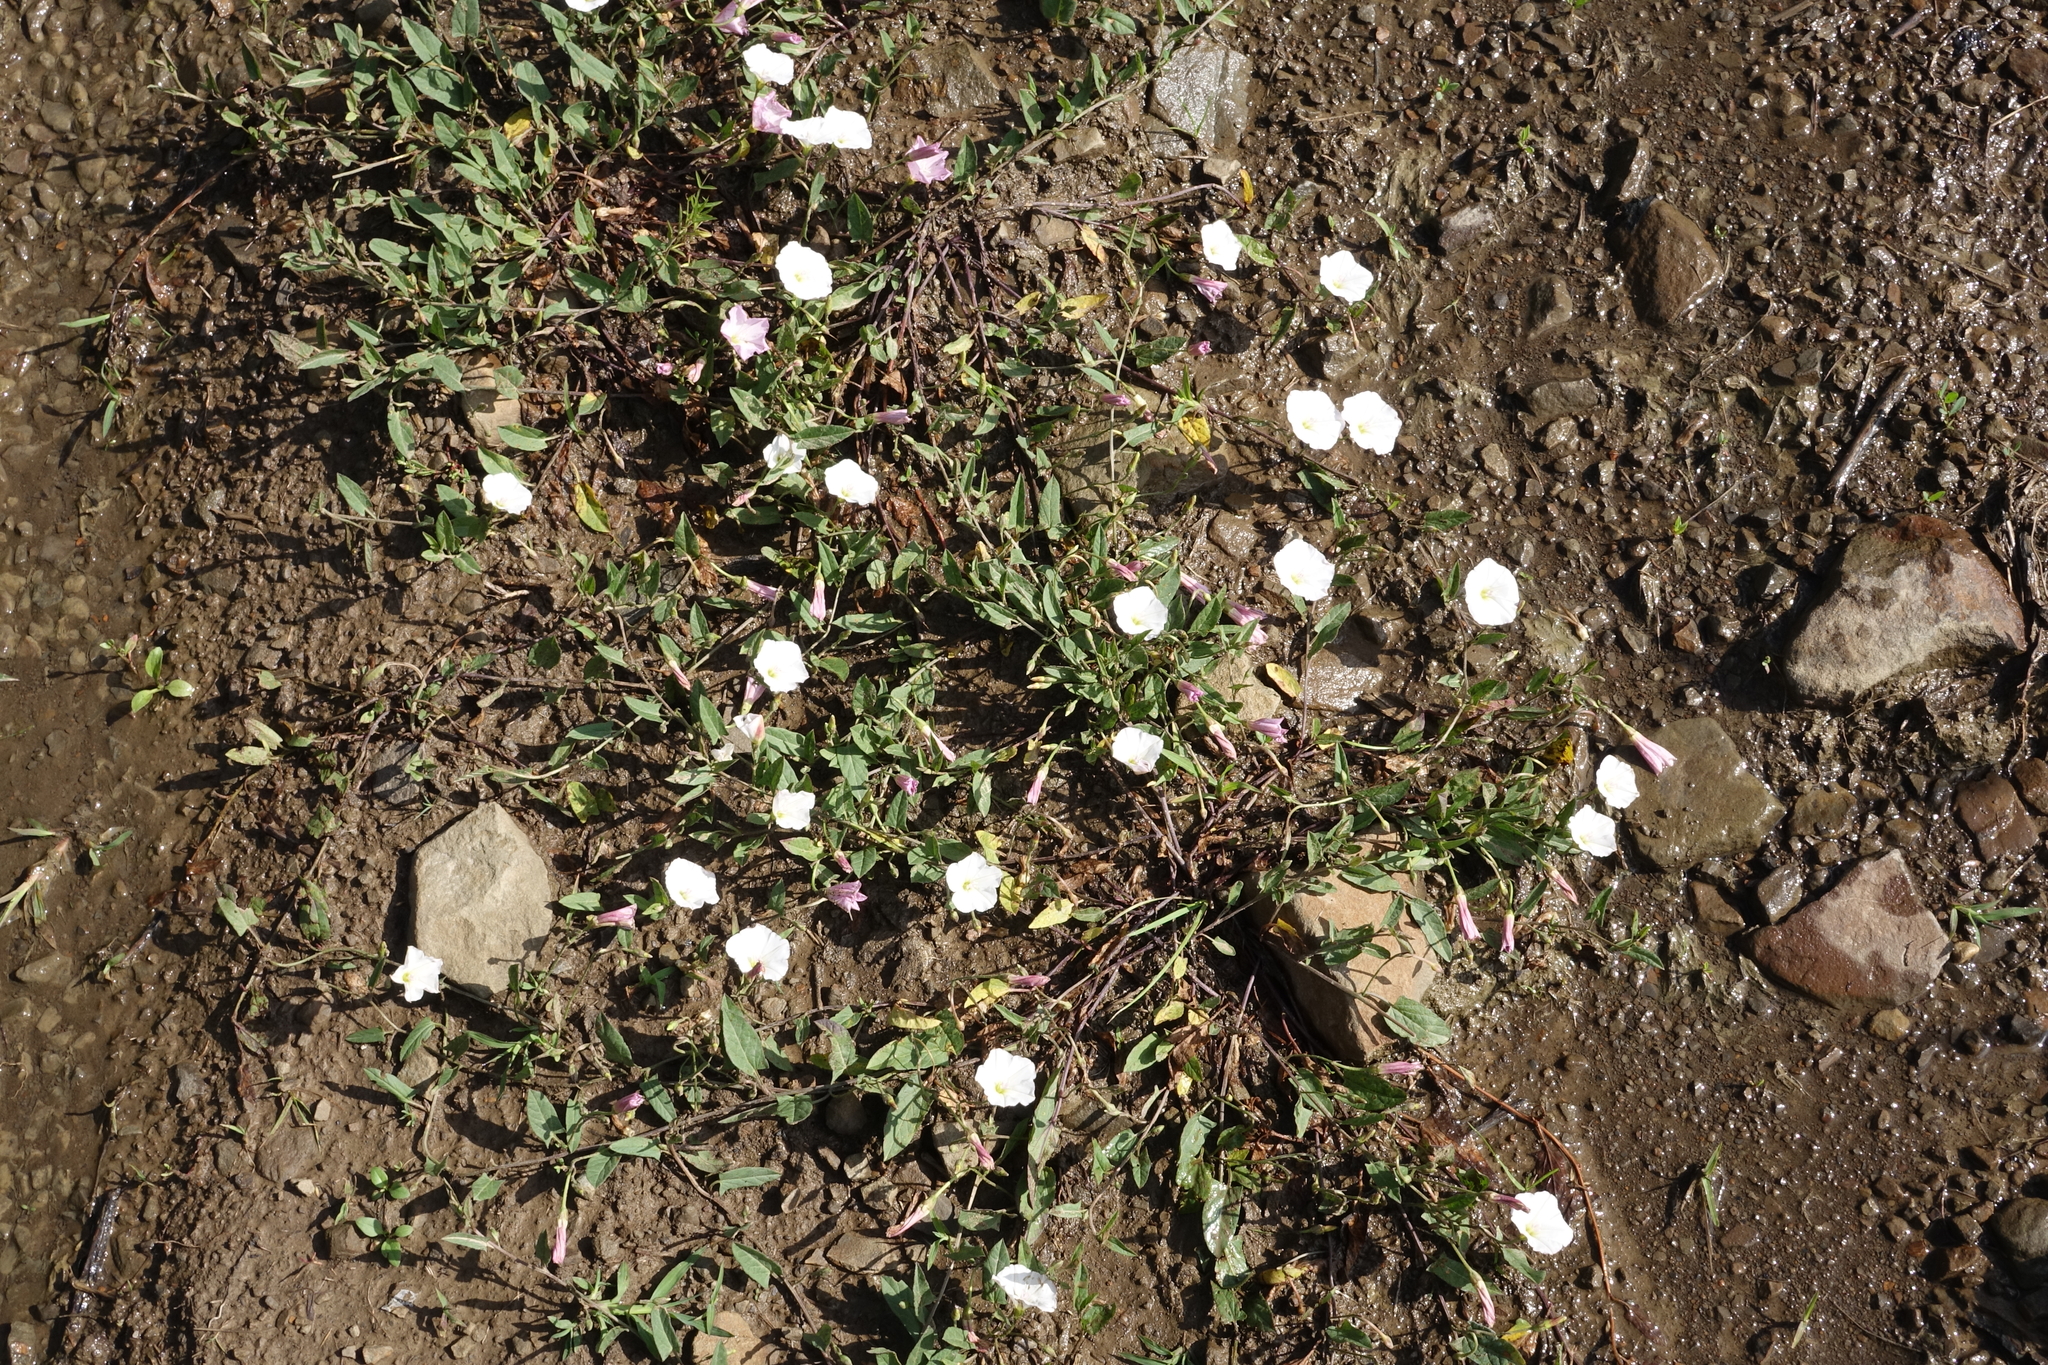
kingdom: Plantae
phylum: Tracheophyta
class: Magnoliopsida
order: Solanales
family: Convolvulaceae
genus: Convolvulus
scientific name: Convolvulus arvensis
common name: Field bindweed
